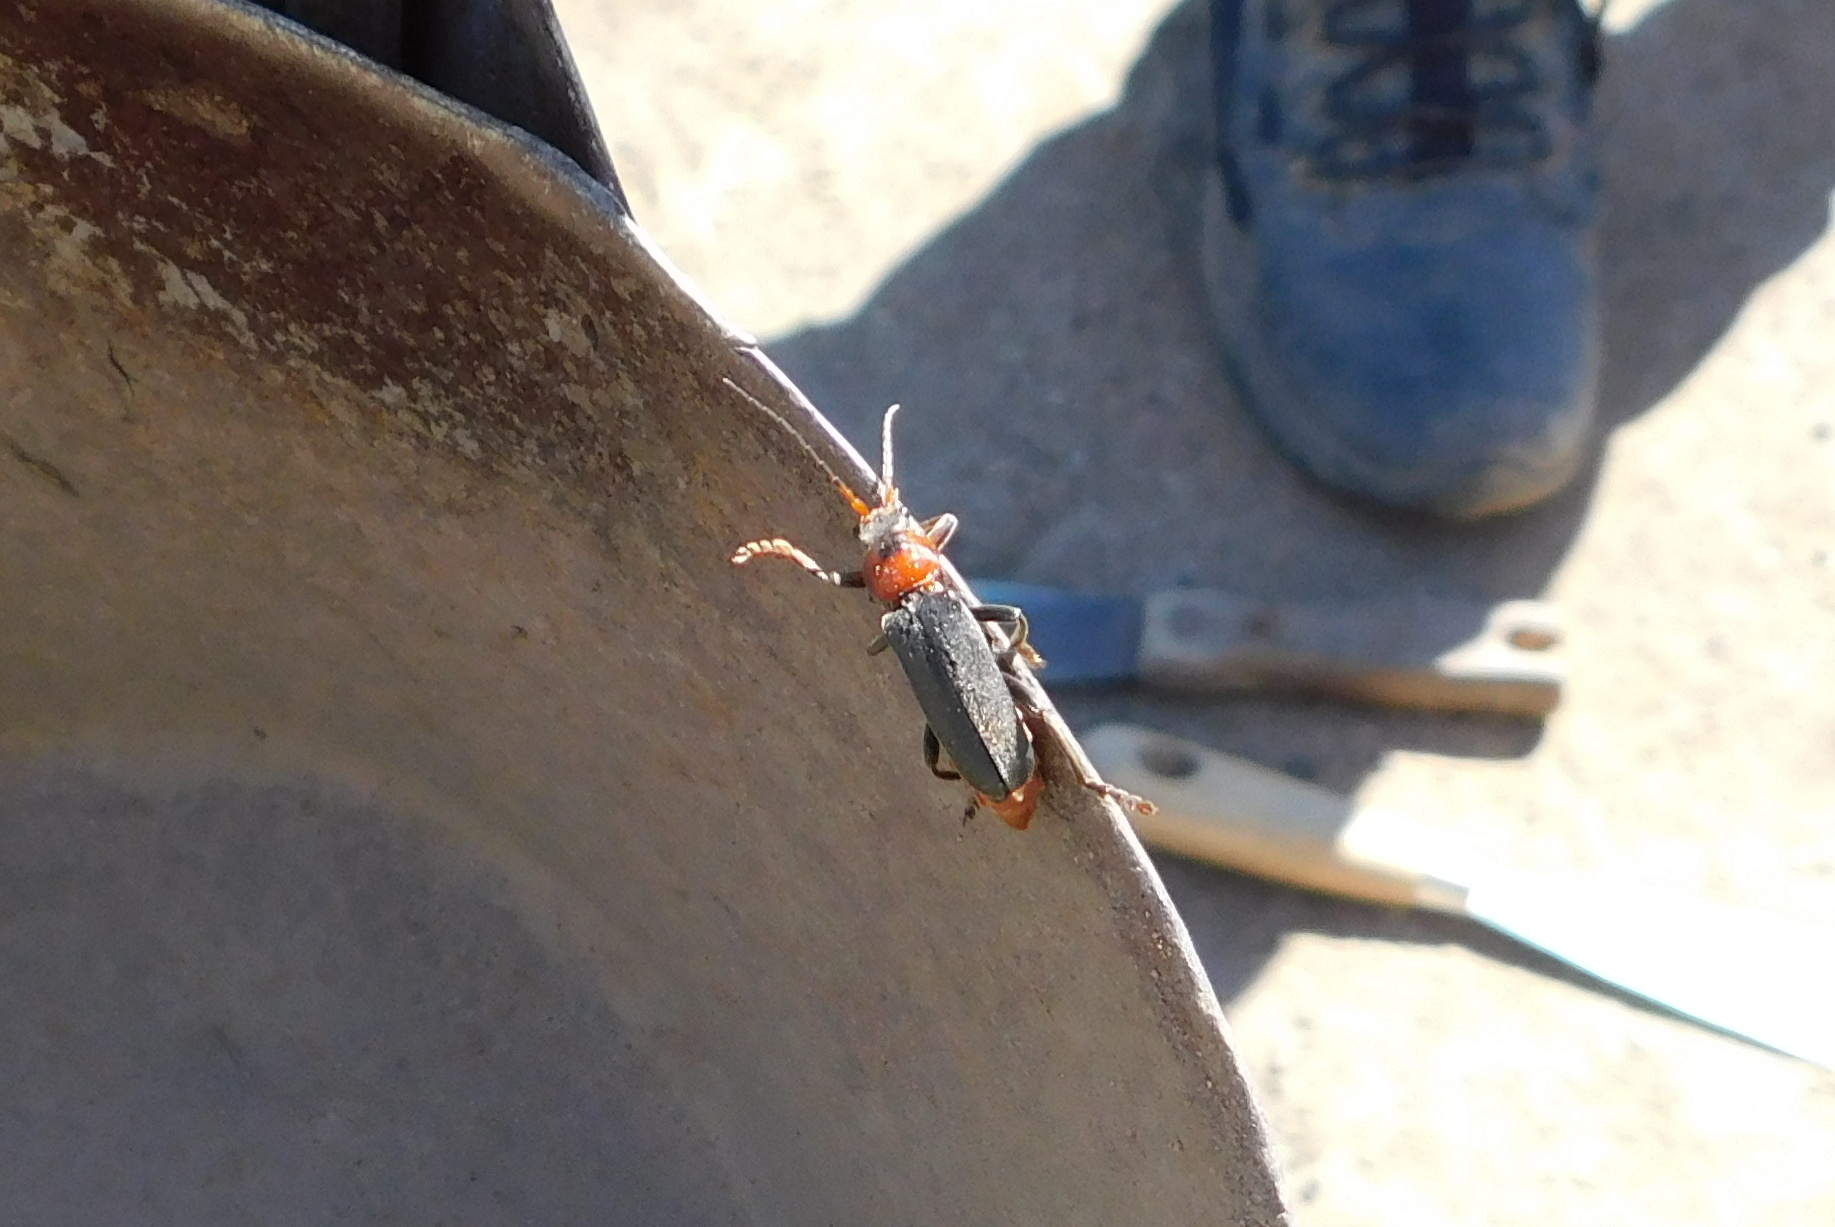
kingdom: Animalia
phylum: Arthropoda
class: Insecta
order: Coleoptera
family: Cantharidae
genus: Cantharis
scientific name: Cantharis fusca
